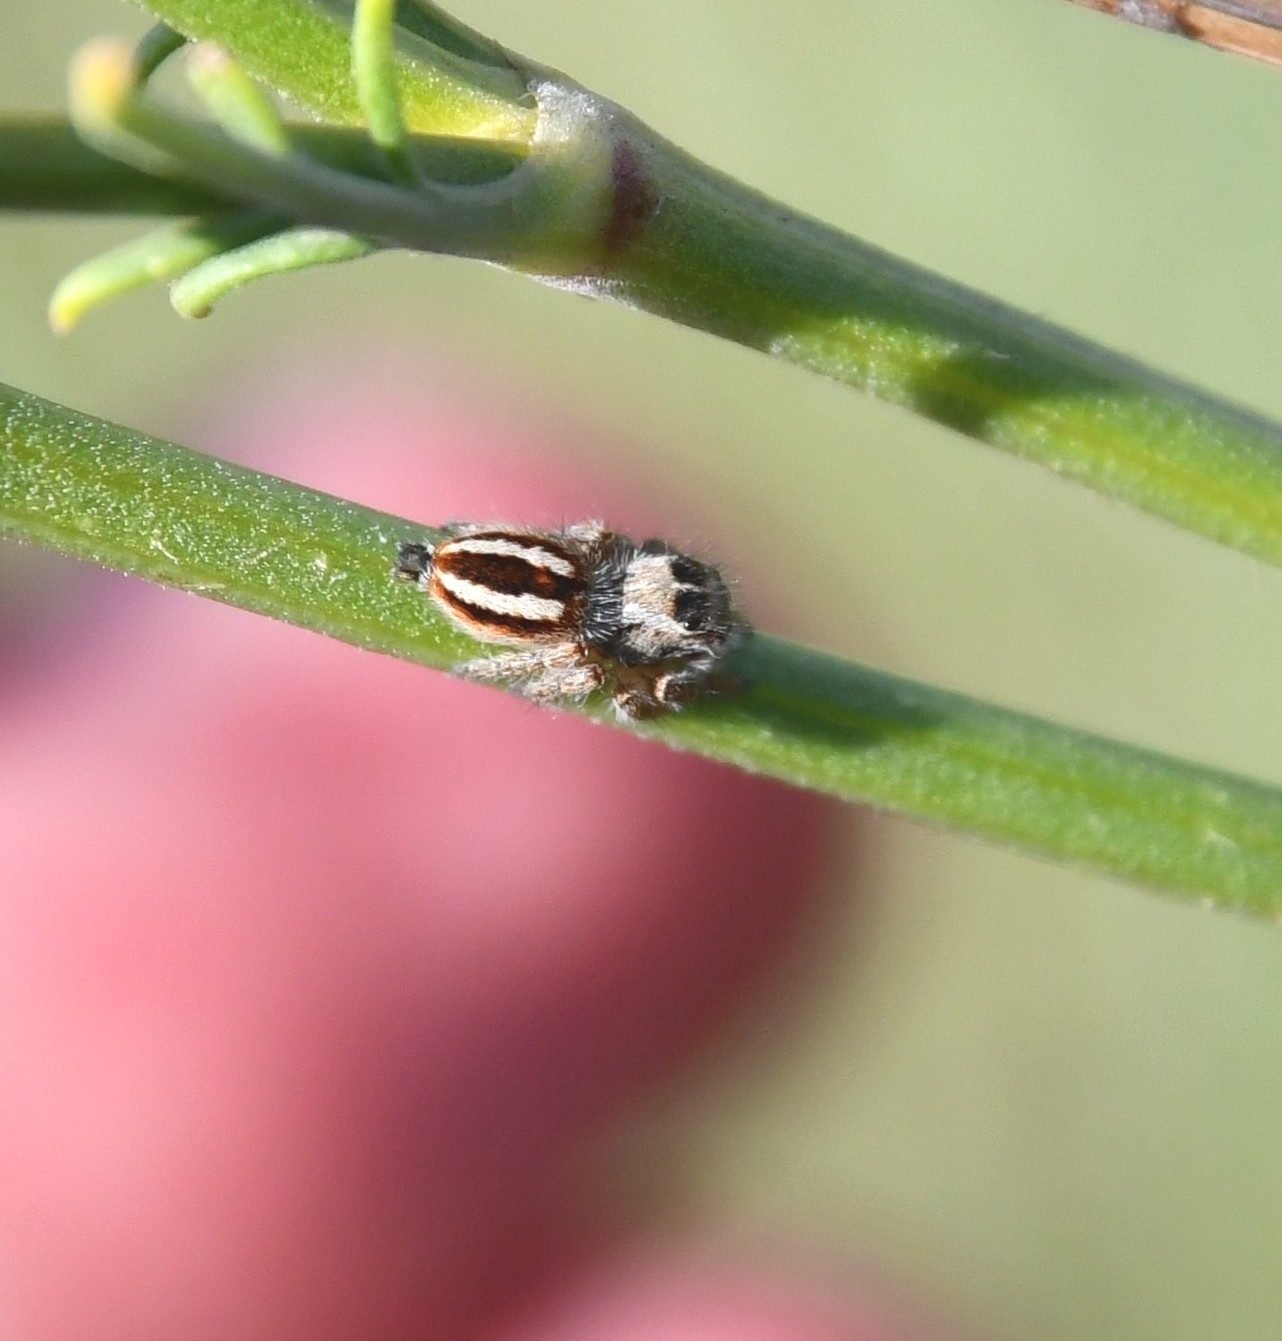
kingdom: Animalia
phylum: Arthropoda
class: Arachnida
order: Araneae
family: Salticidae
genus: Philaeus
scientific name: Philaeus chrysops
